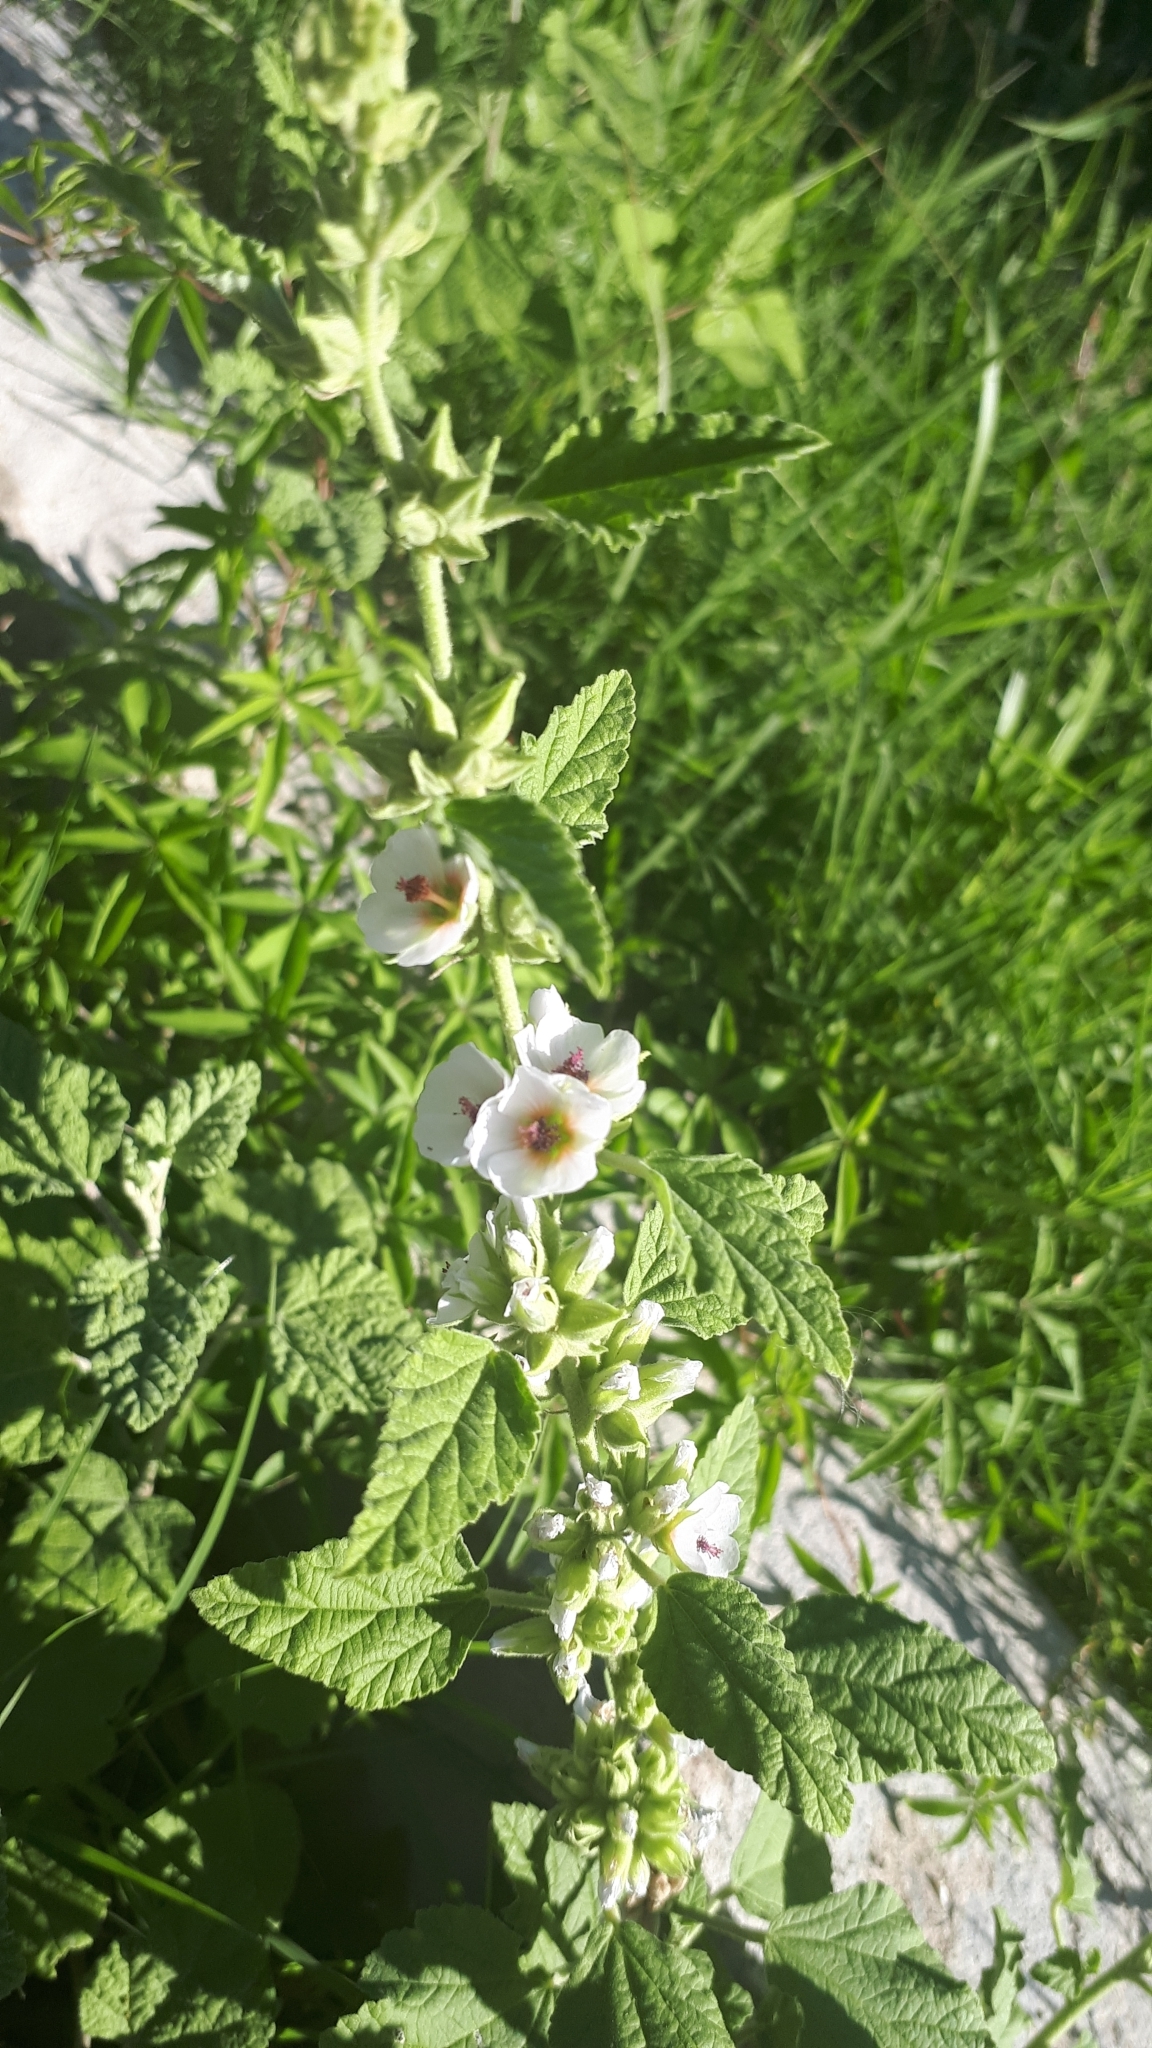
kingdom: Plantae
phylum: Tracheophyta
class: Magnoliopsida
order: Malvales
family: Malvaceae
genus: Sphaeralcea
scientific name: Sphaeralcea bonariensis
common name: Latin globemallow
